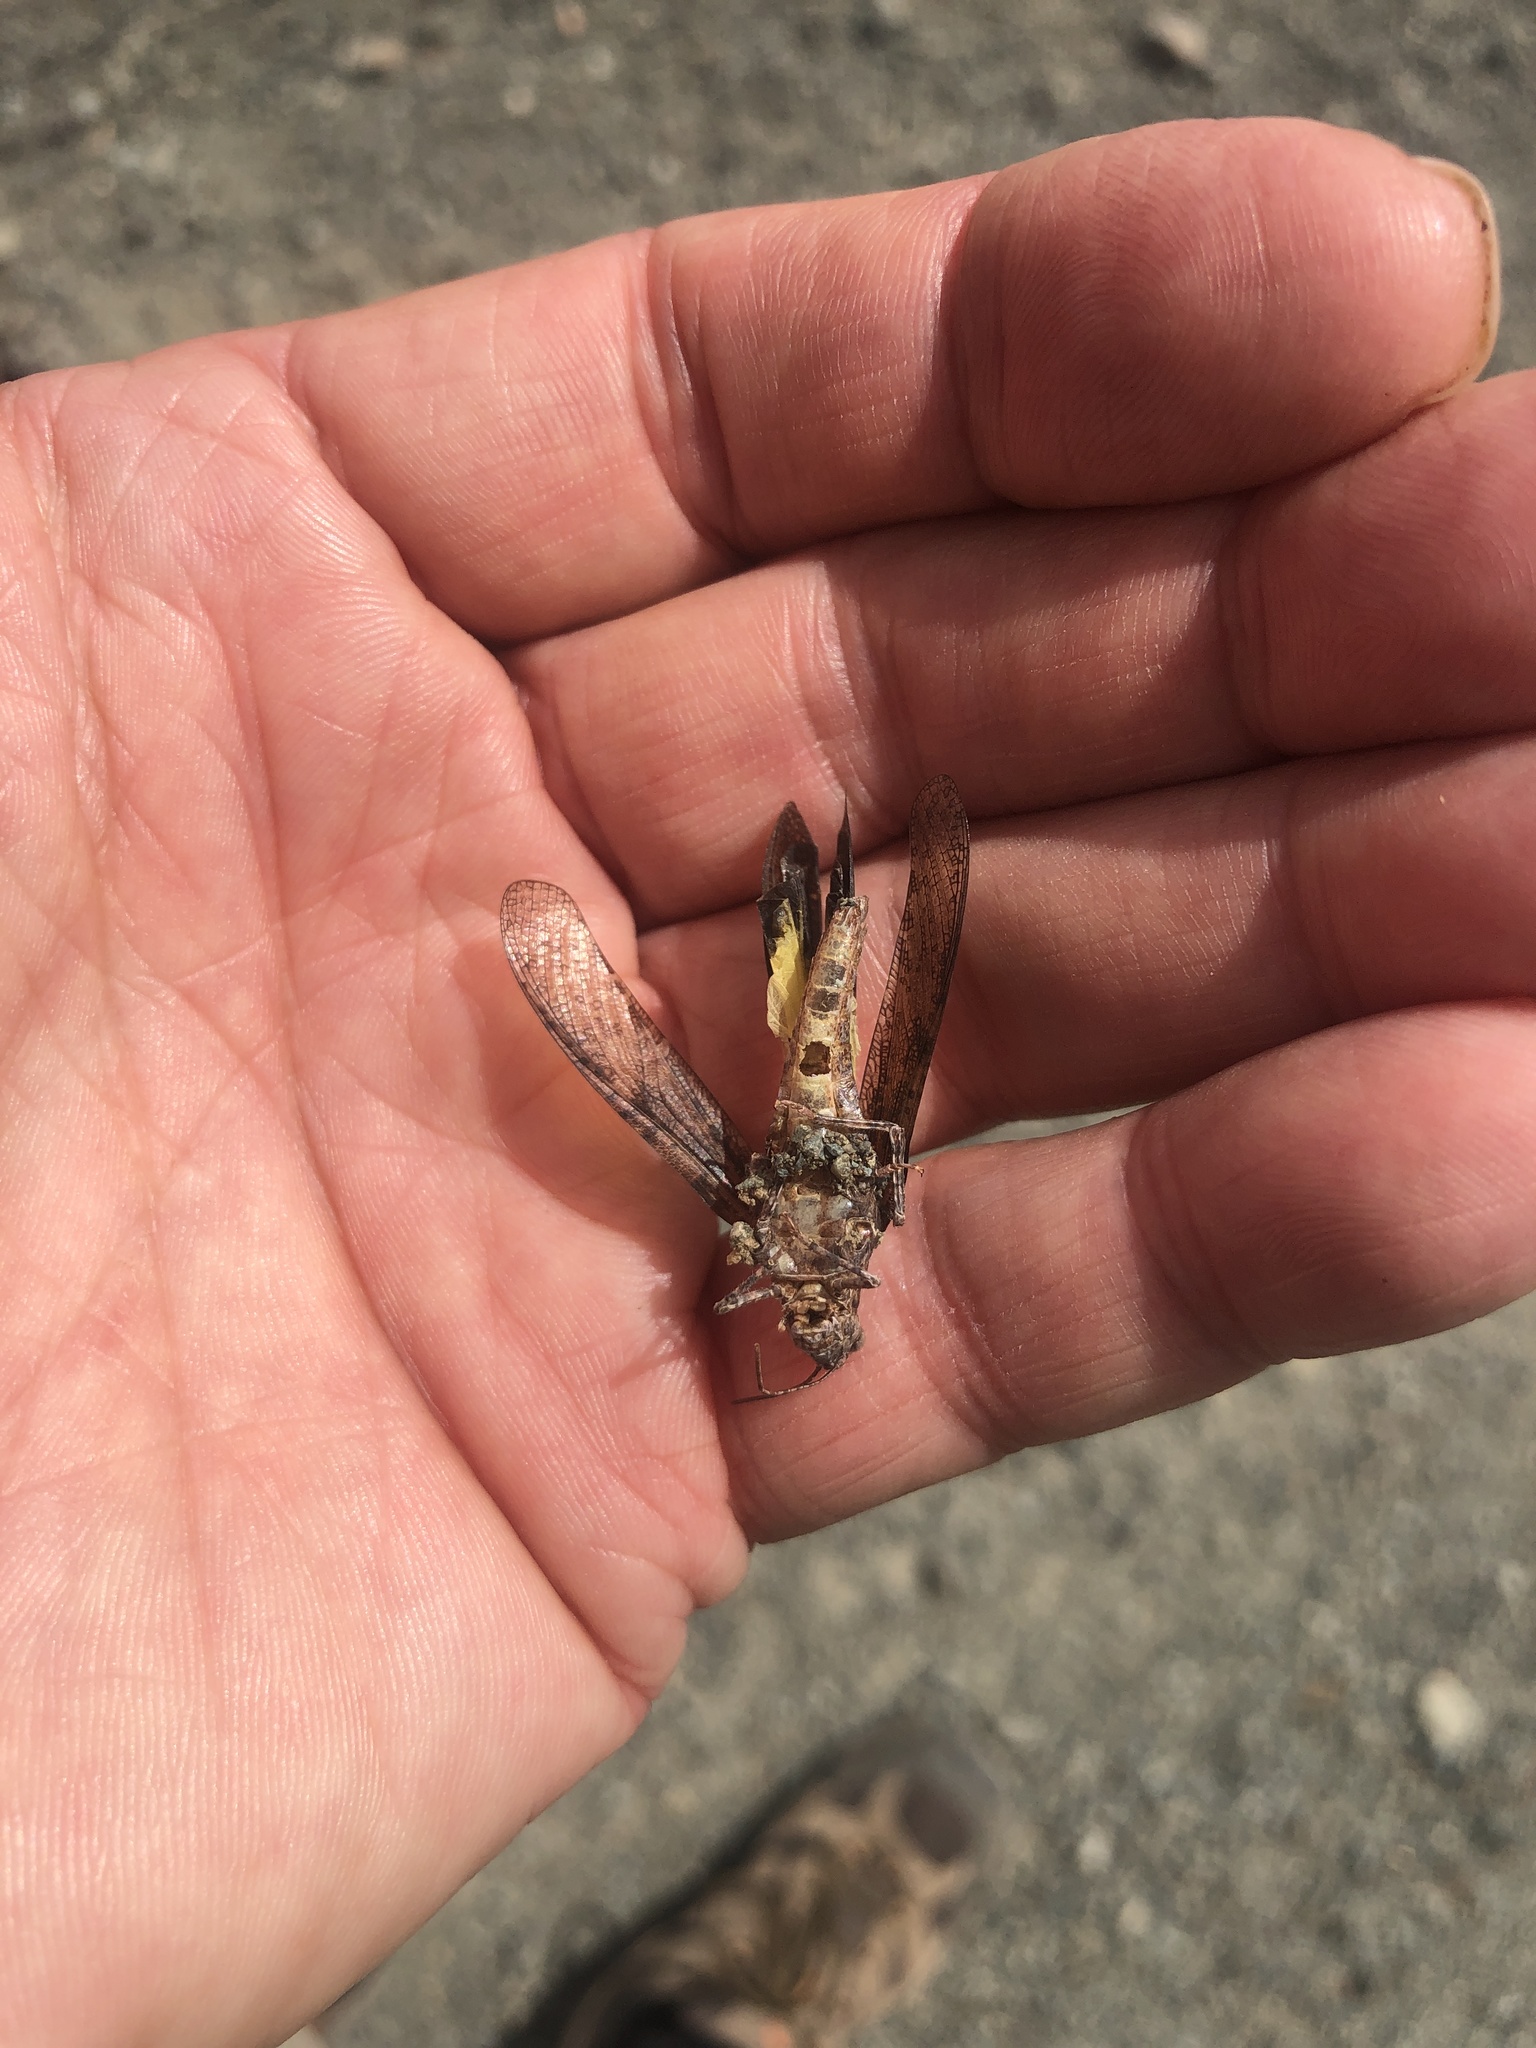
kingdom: Animalia
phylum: Arthropoda
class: Insecta
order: Orthoptera
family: Acrididae
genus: Trimerotropis
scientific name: Trimerotropis verruculata
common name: Crackling forest grasshopper
